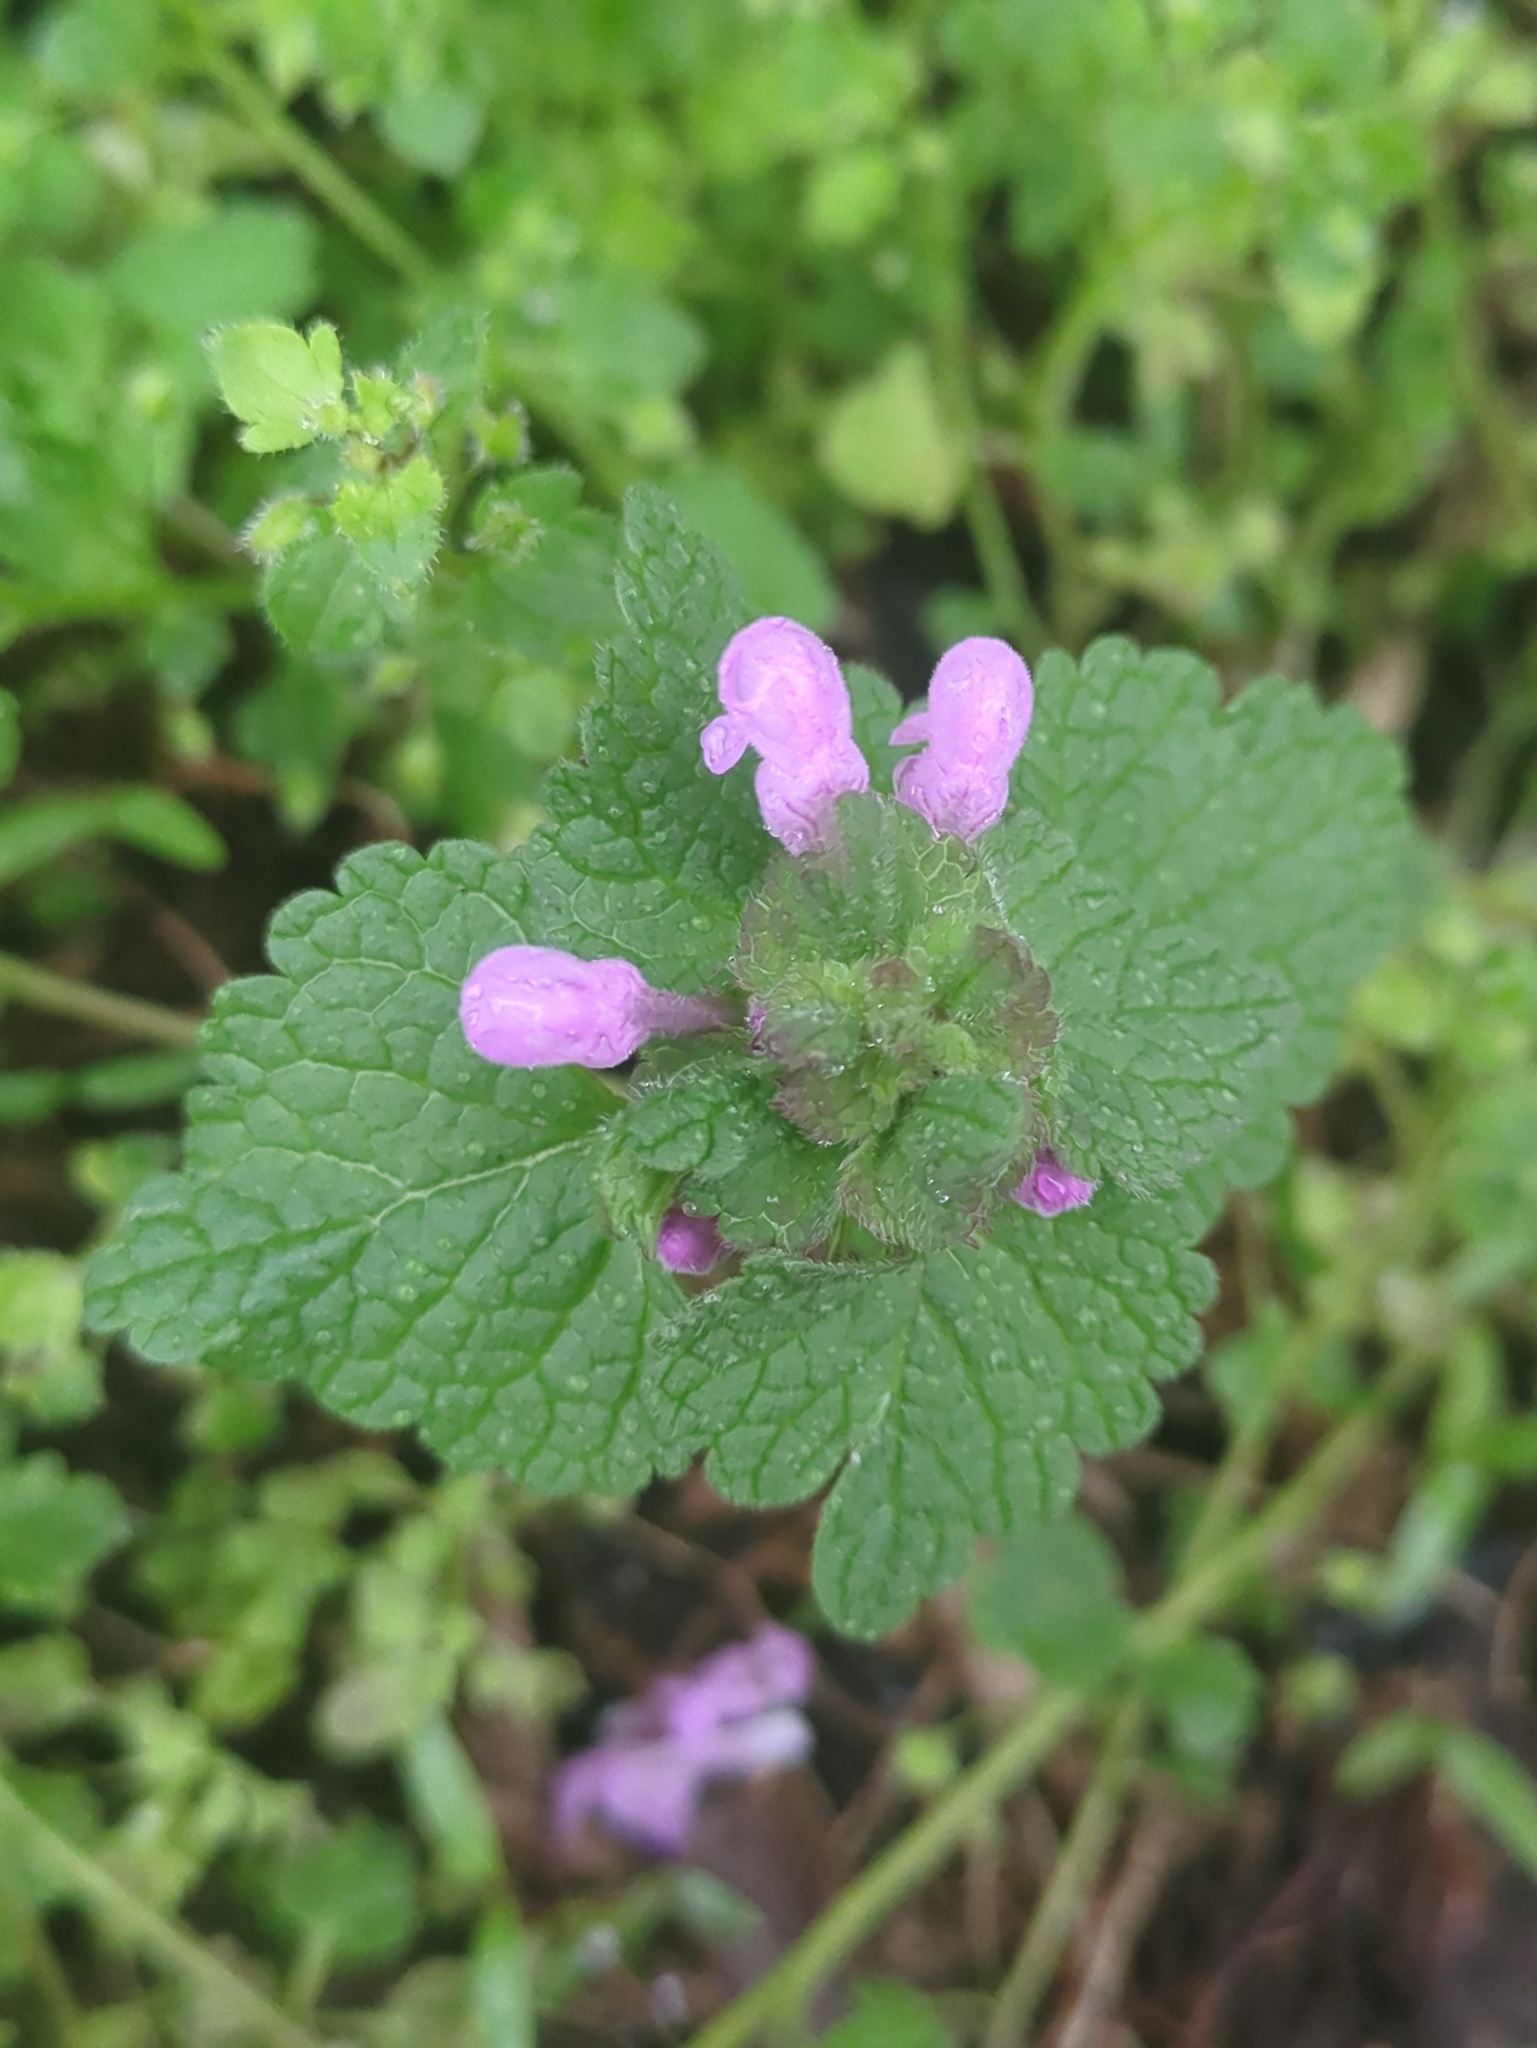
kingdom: Plantae
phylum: Tracheophyta
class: Magnoliopsida
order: Lamiales
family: Lamiaceae
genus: Lamium
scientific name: Lamium purpureum
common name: Red dead-nettle
